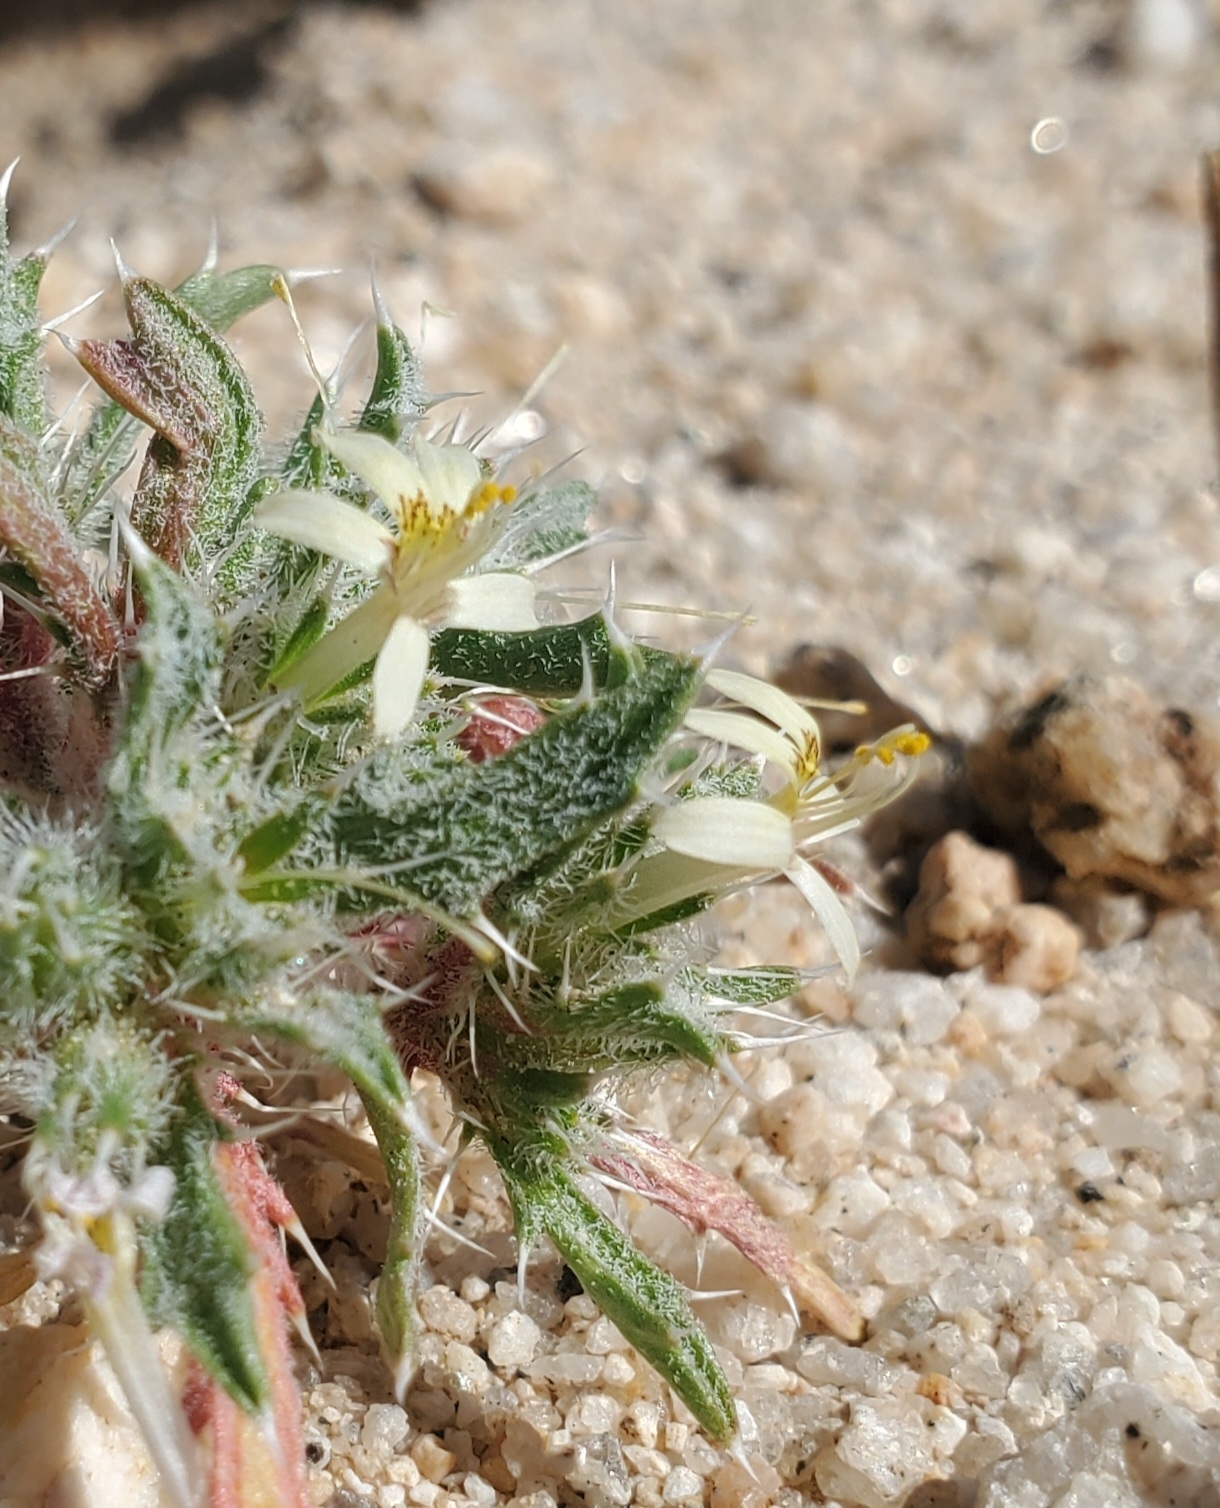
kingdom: Plantae
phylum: Tracheophyta
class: Magnoliopsida
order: Ericales
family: Polemoniaceae
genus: Loeseliastrum
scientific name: Loeseliastrum schottii
